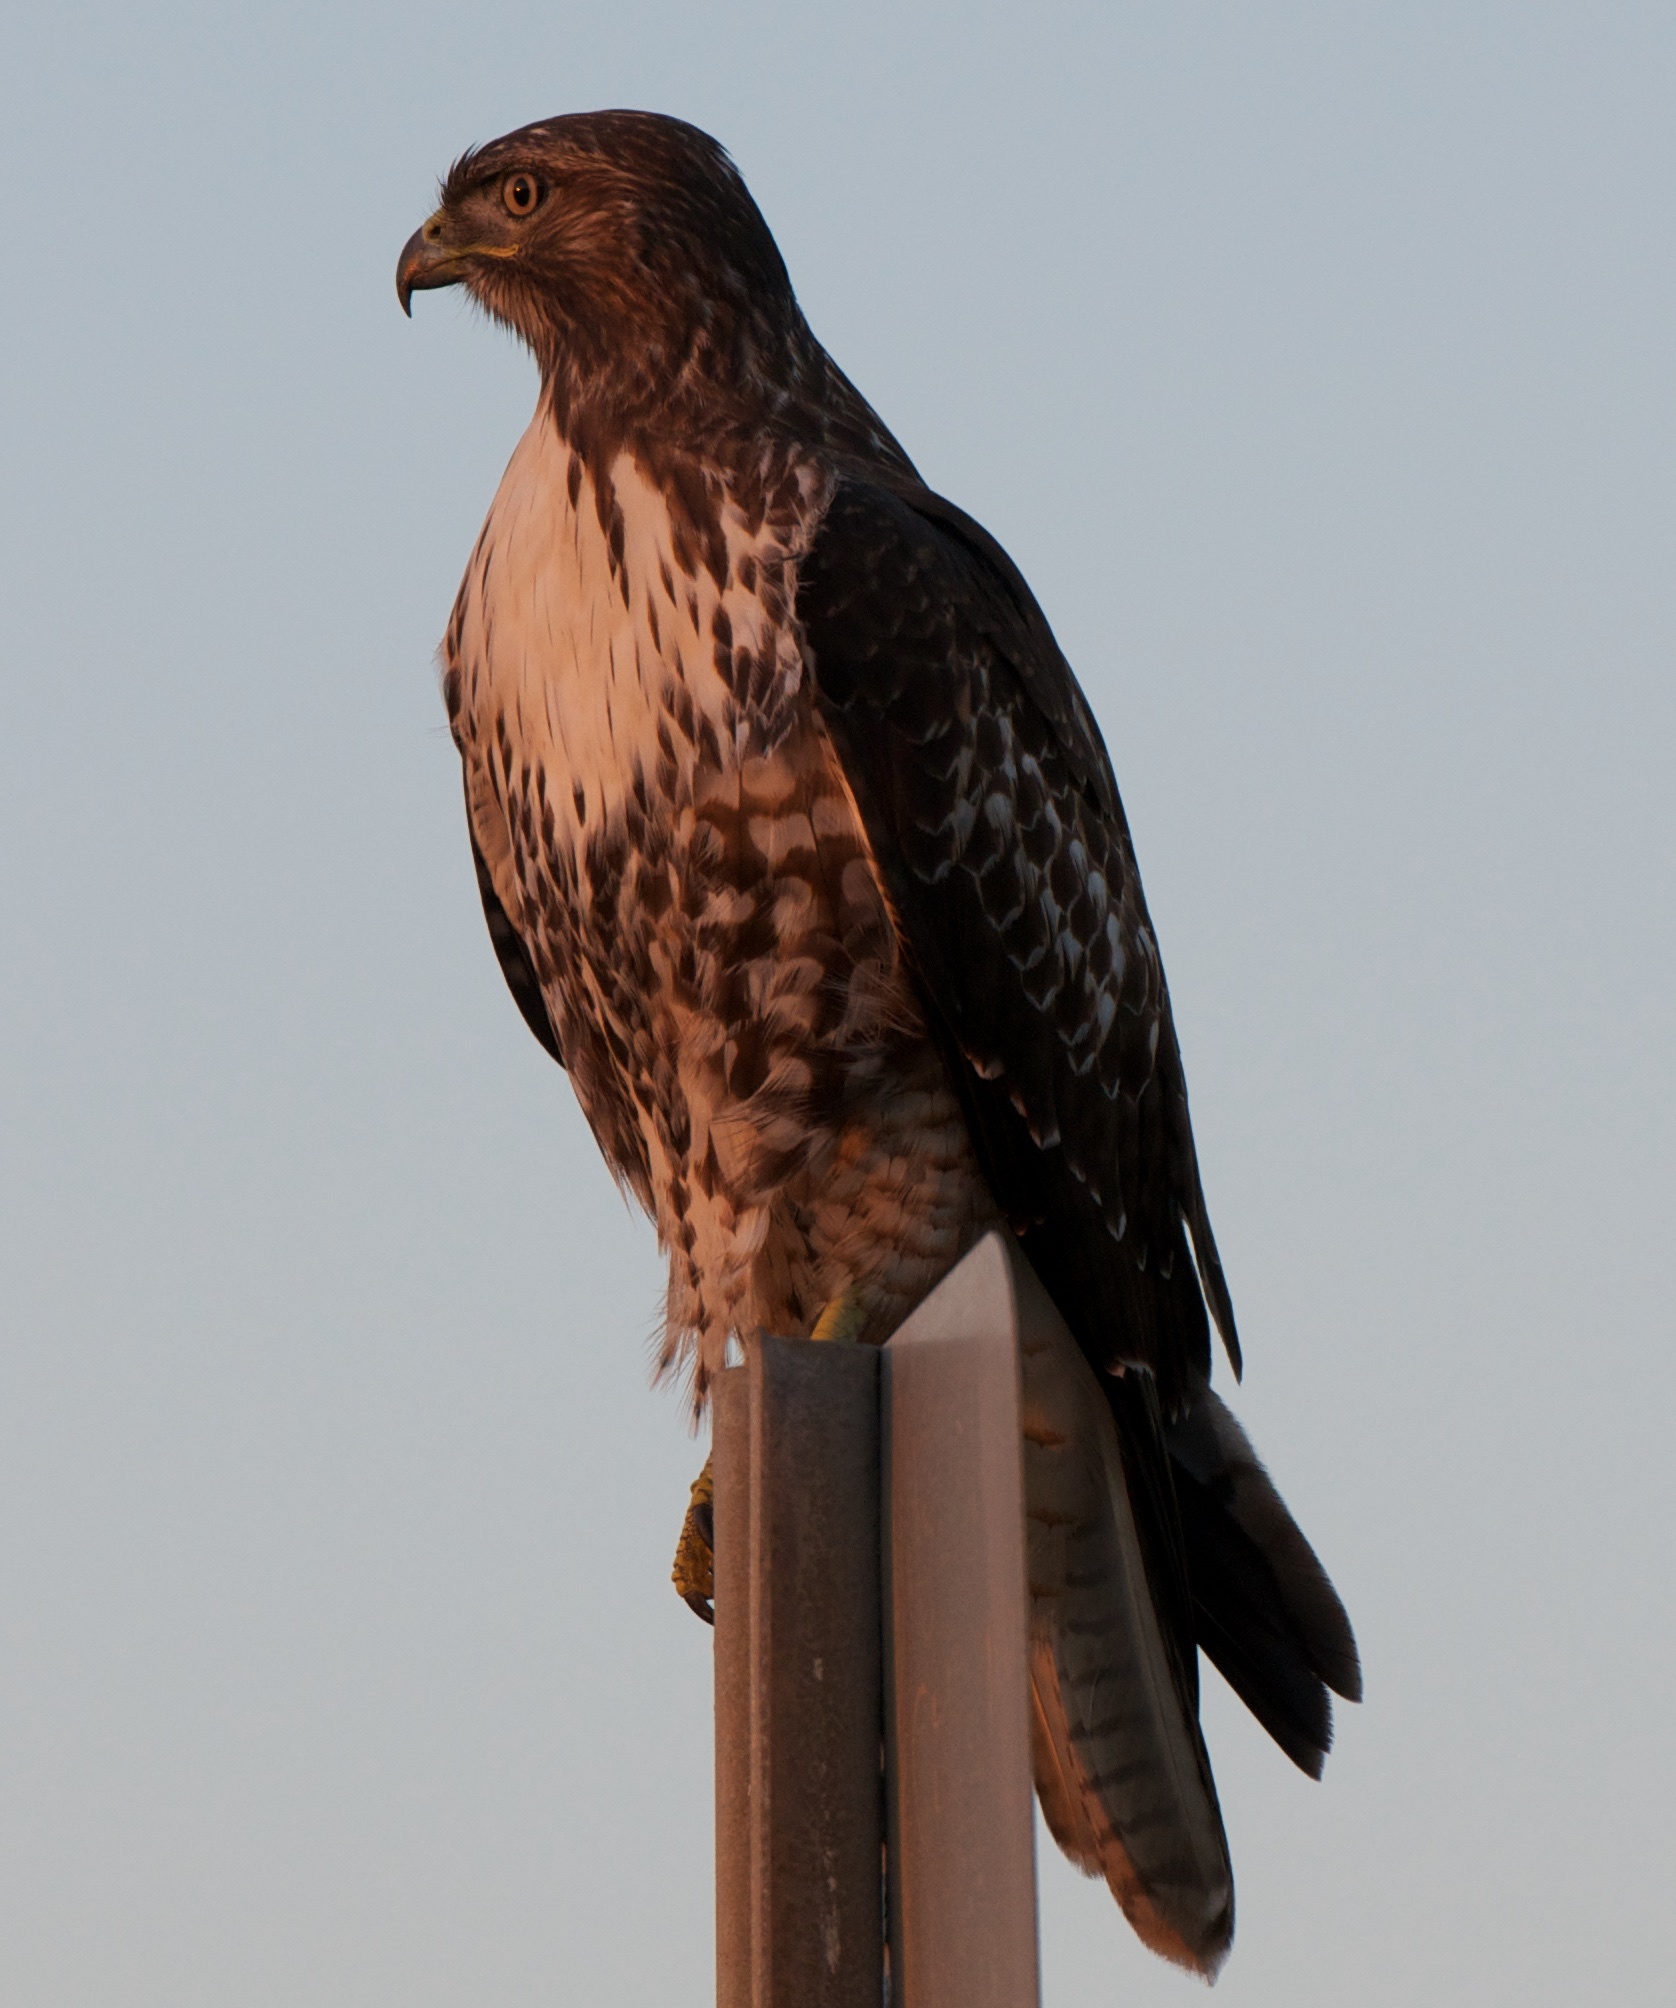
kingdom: Animalia
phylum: Chordata
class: Aves
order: Accipitriformes
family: Accipitridae
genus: Buteo
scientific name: Buteo jamaicensis
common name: Red-tailed hawk
